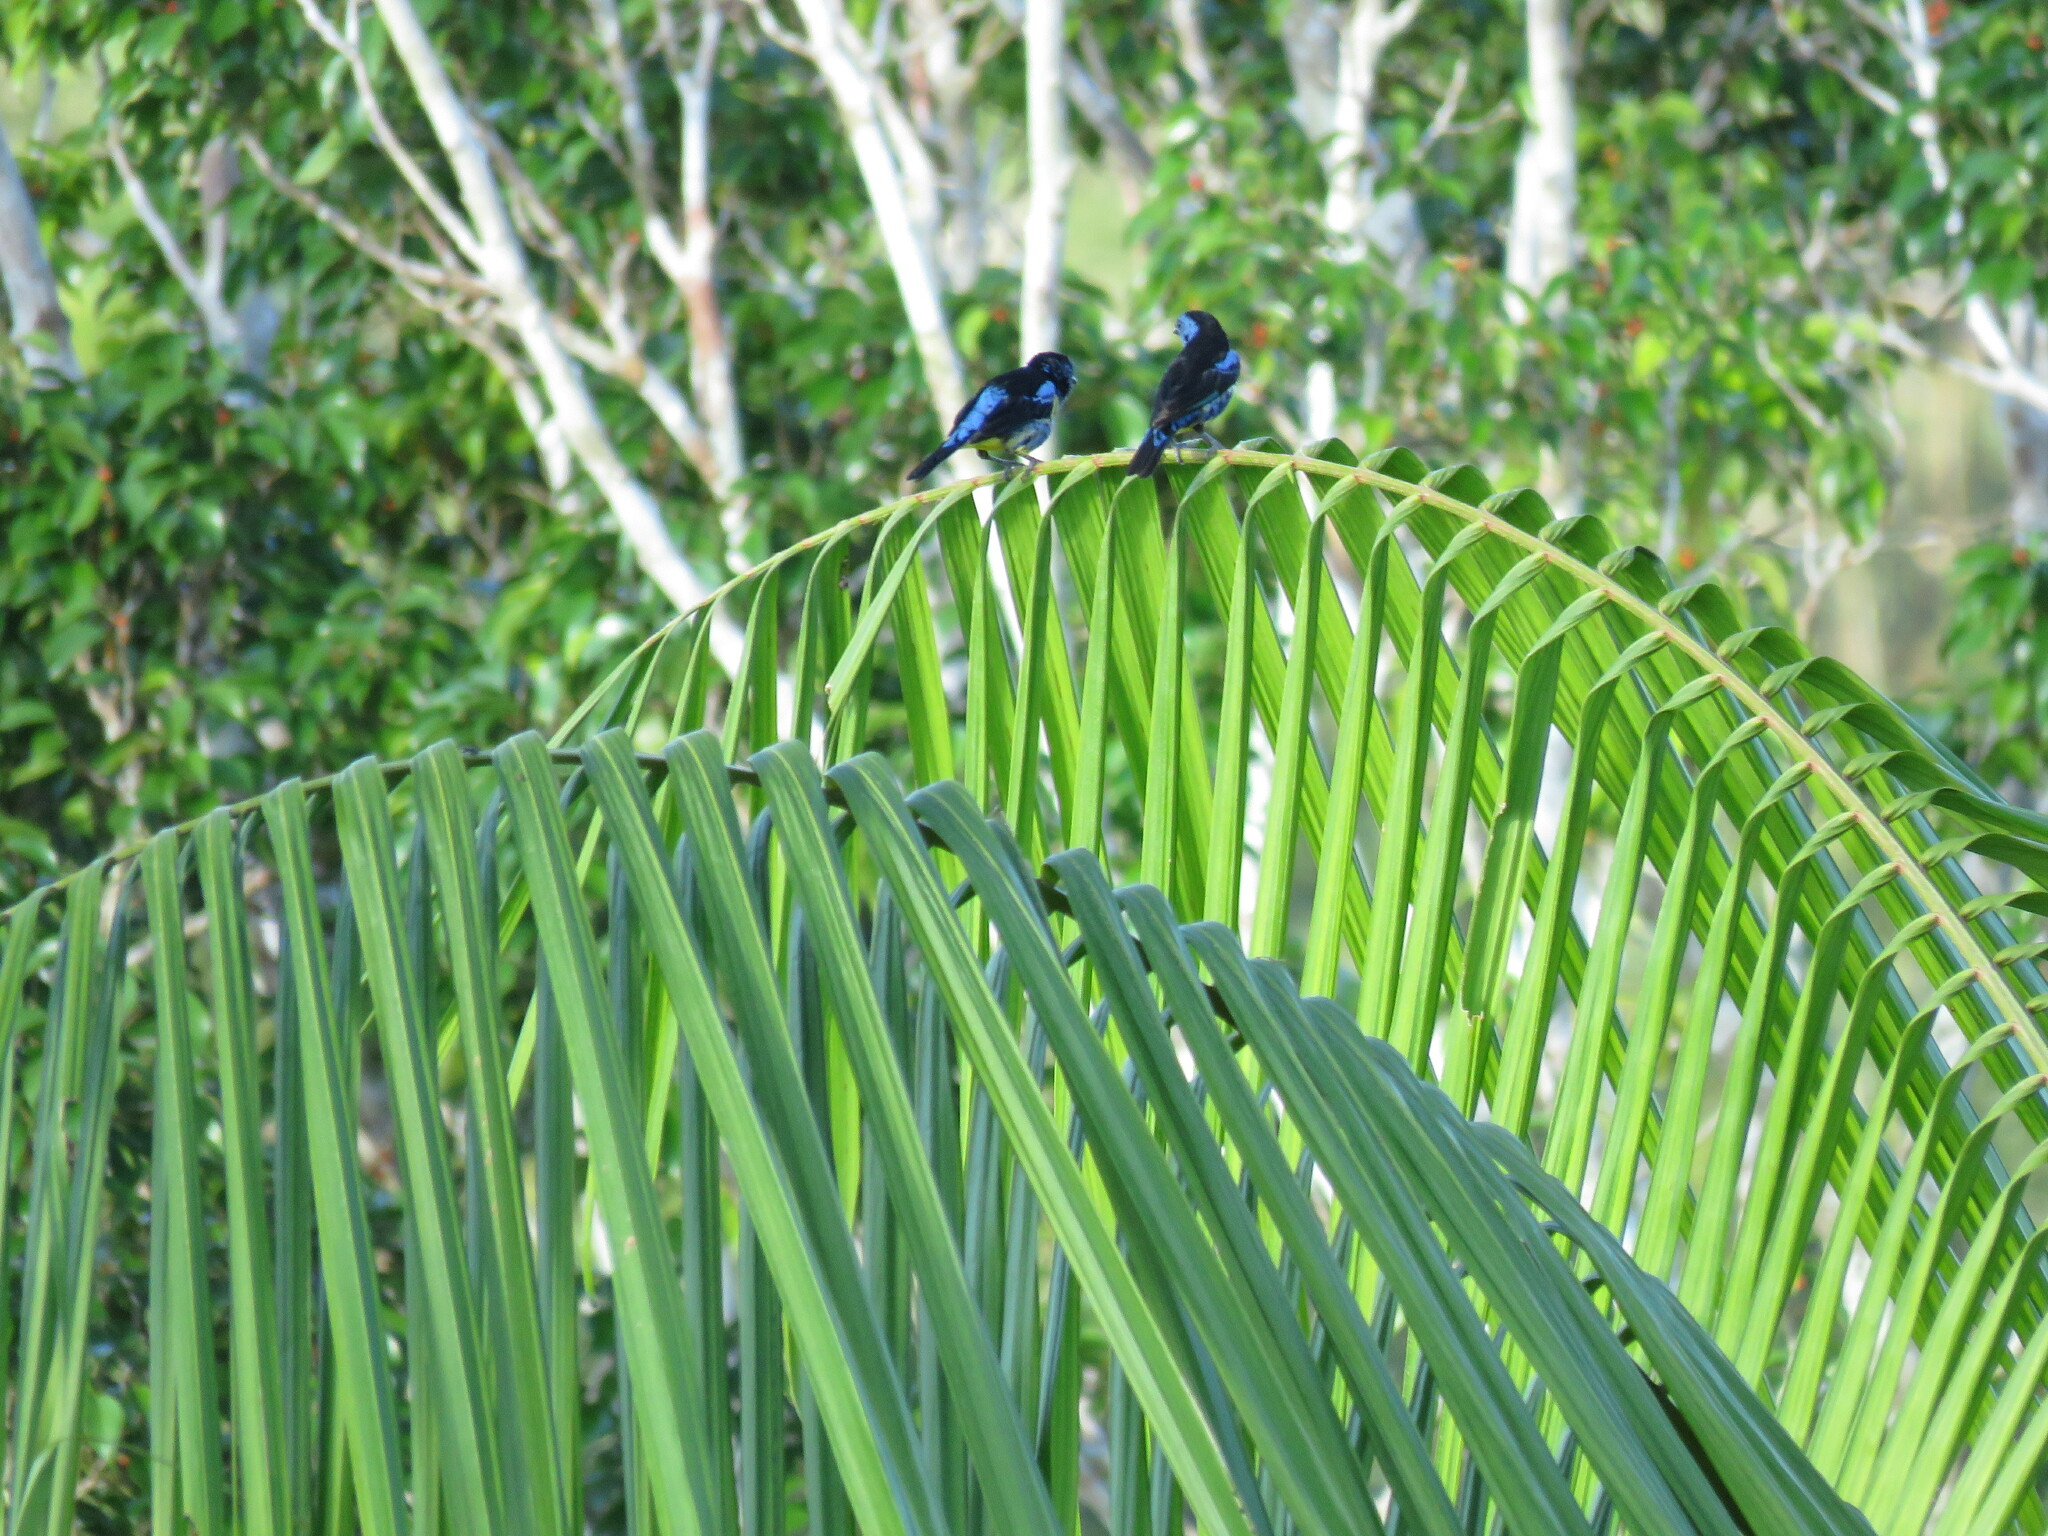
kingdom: Animalia
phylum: Chordata
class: Aves
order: Passeriformes
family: Thraupidae
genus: Tangara
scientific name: Tangara mexicana
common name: Turquoise tanager
